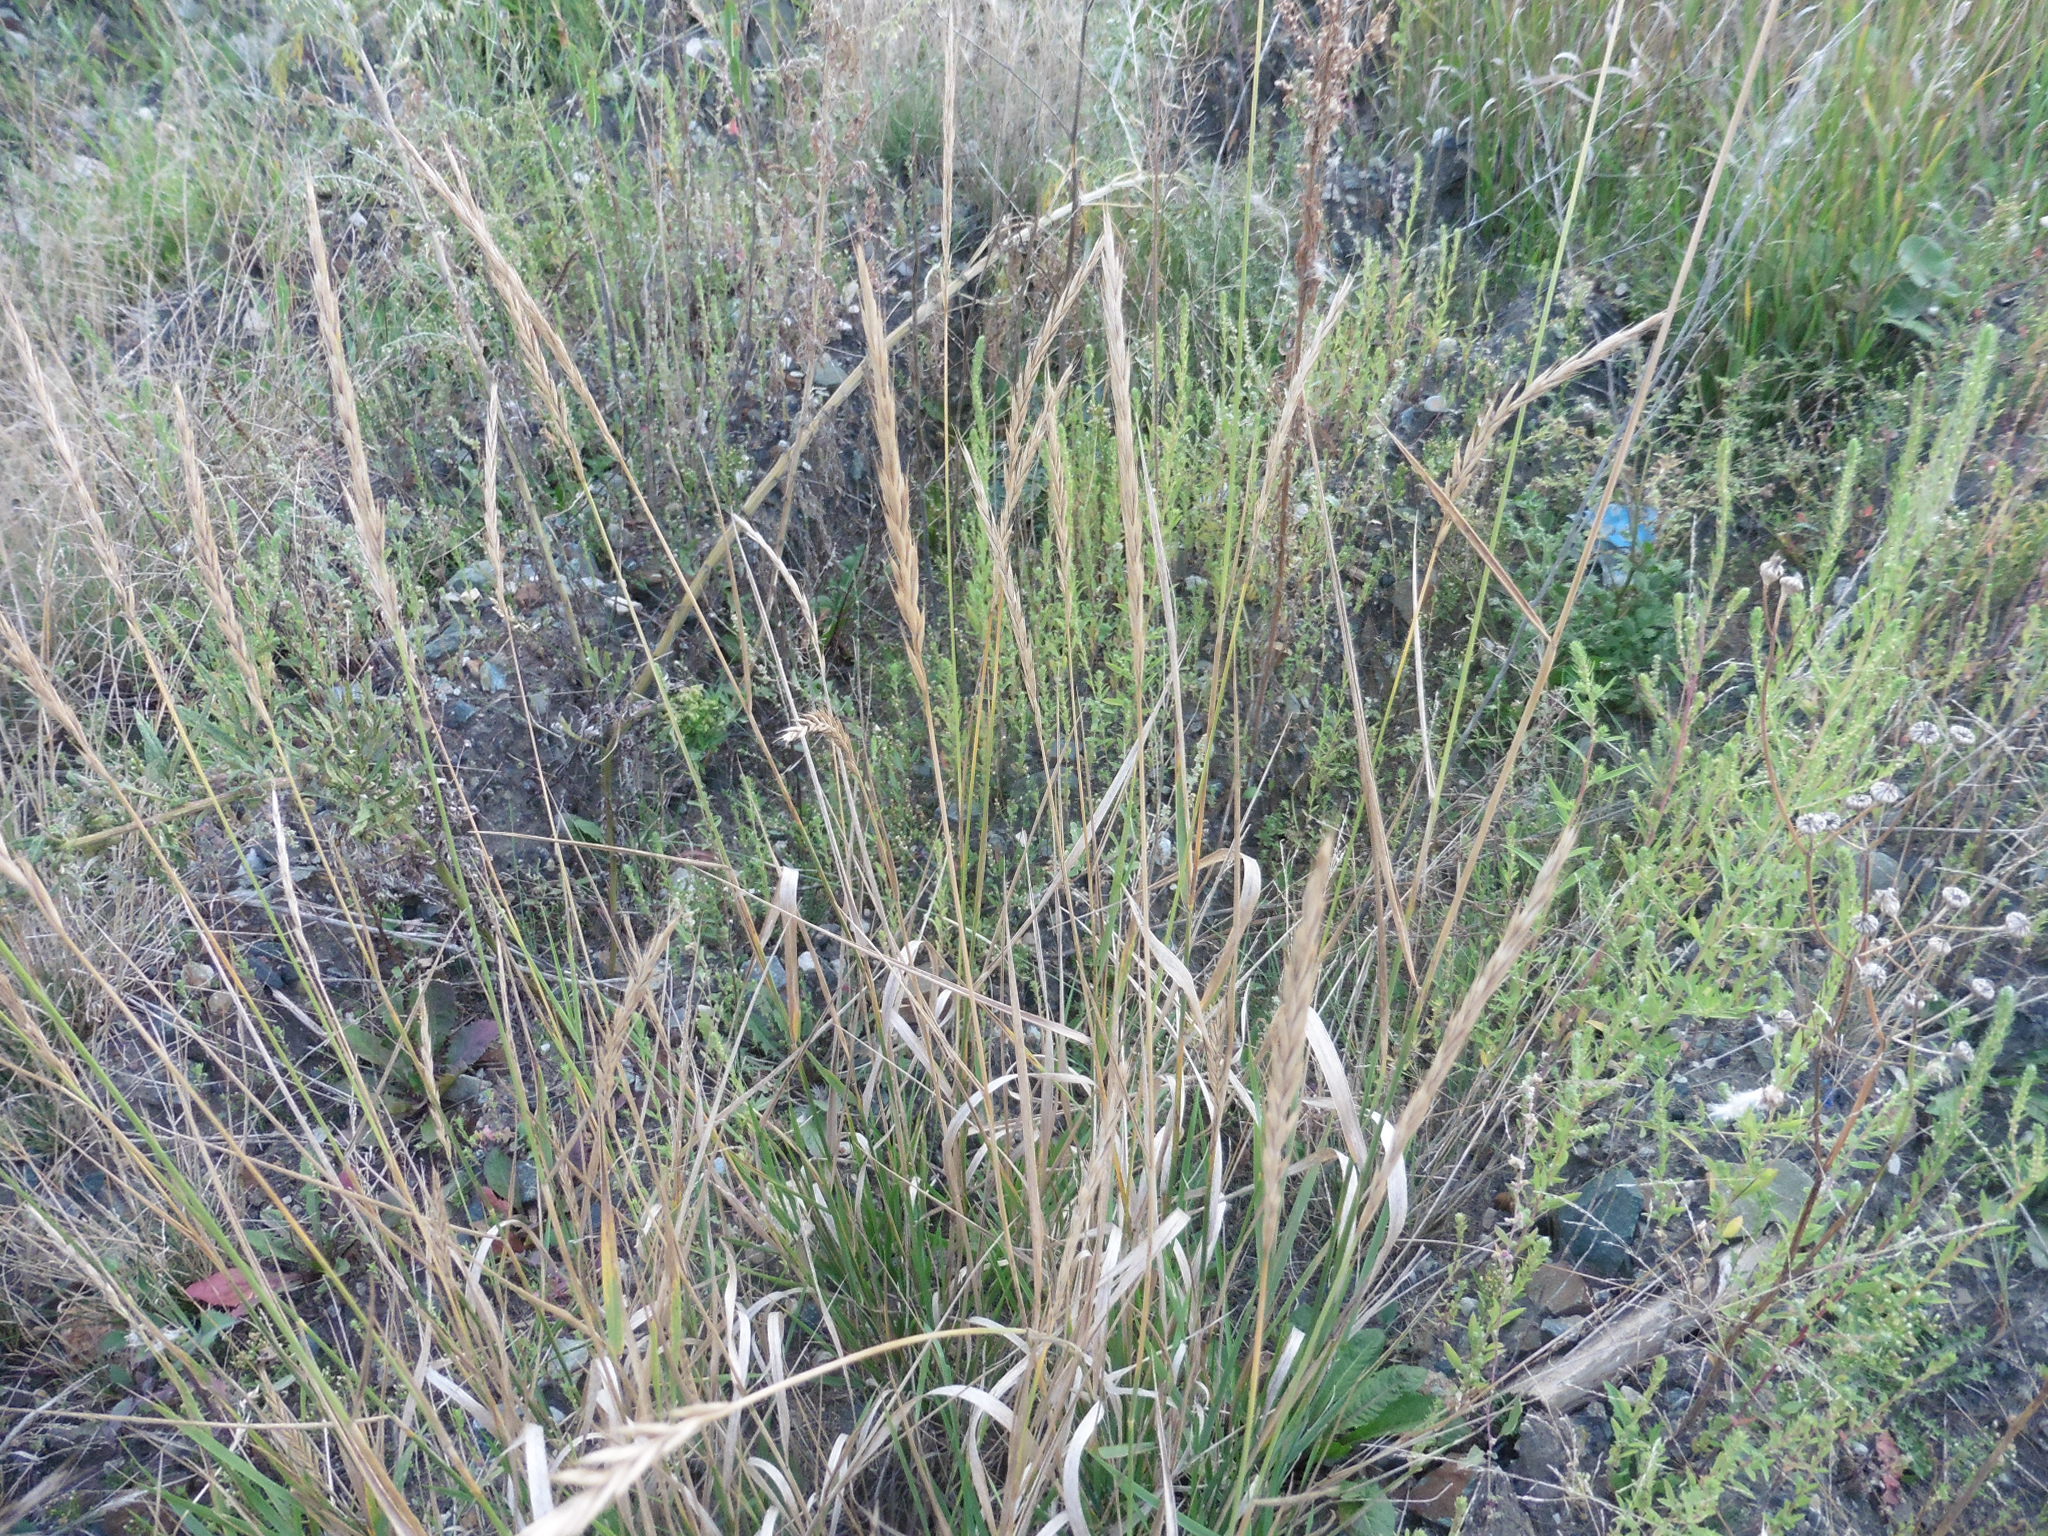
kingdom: Plantae
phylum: Tracheophyta
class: Liliopsida
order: Poales
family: Poaceae
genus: Elymus
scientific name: Elymus repens
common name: Quackgrass
